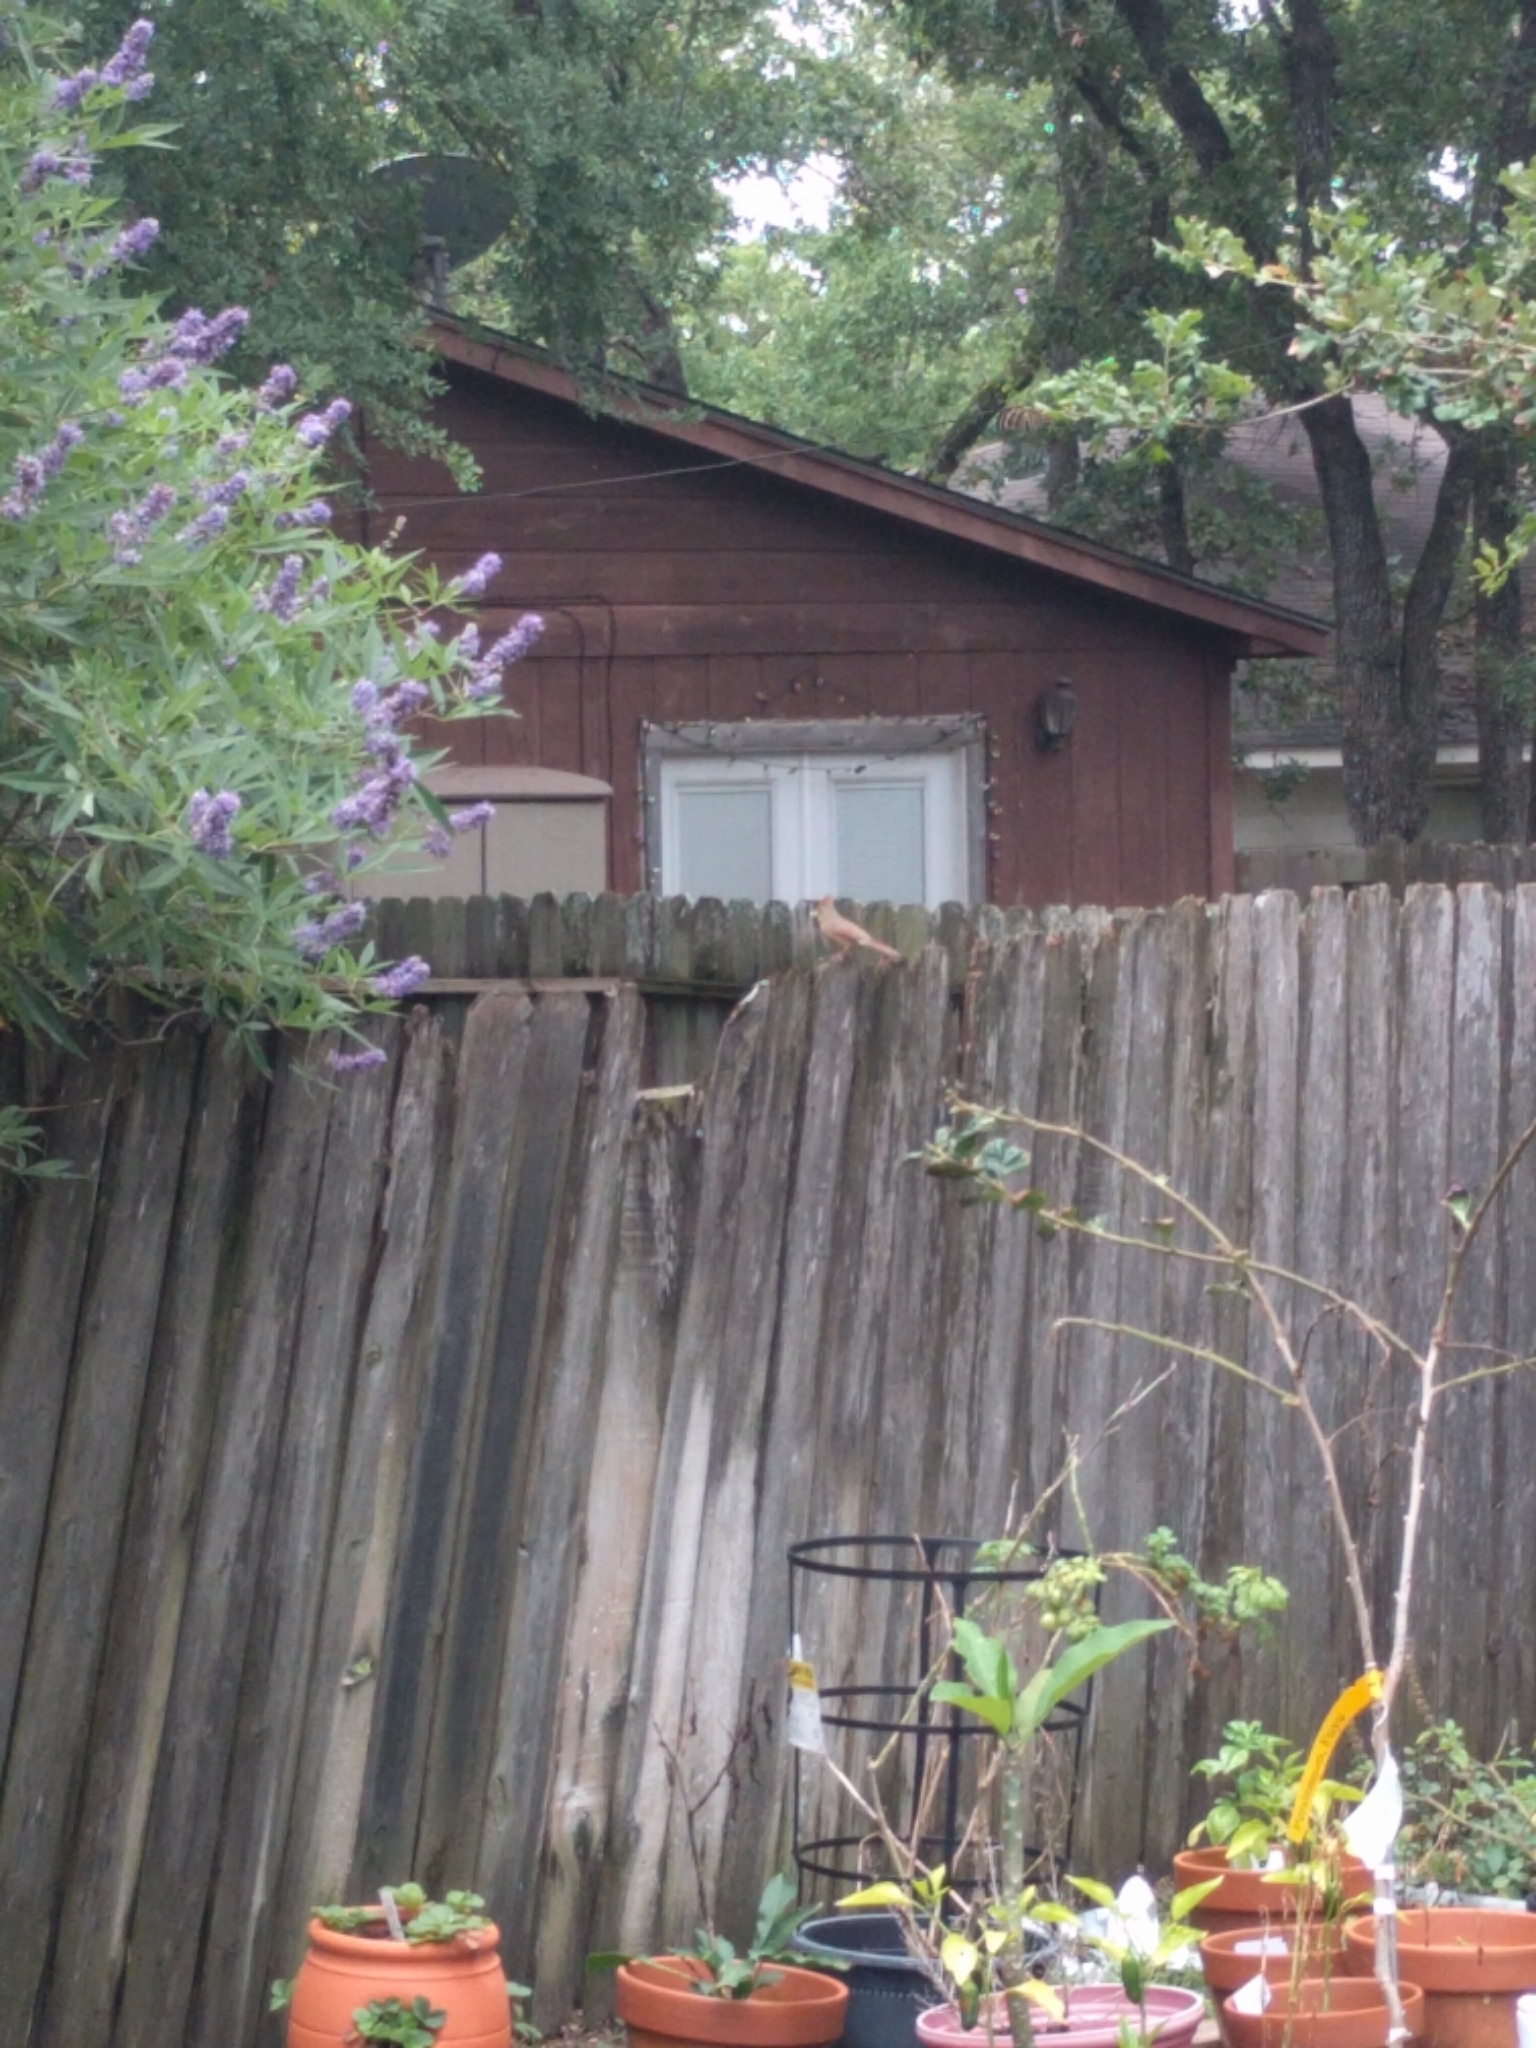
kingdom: Animalia
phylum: Chordata
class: Aves
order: Passeriformes
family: Cardinalidae
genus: Cardinalis
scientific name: Cardinalis cardinalis
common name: Northern cardinal
